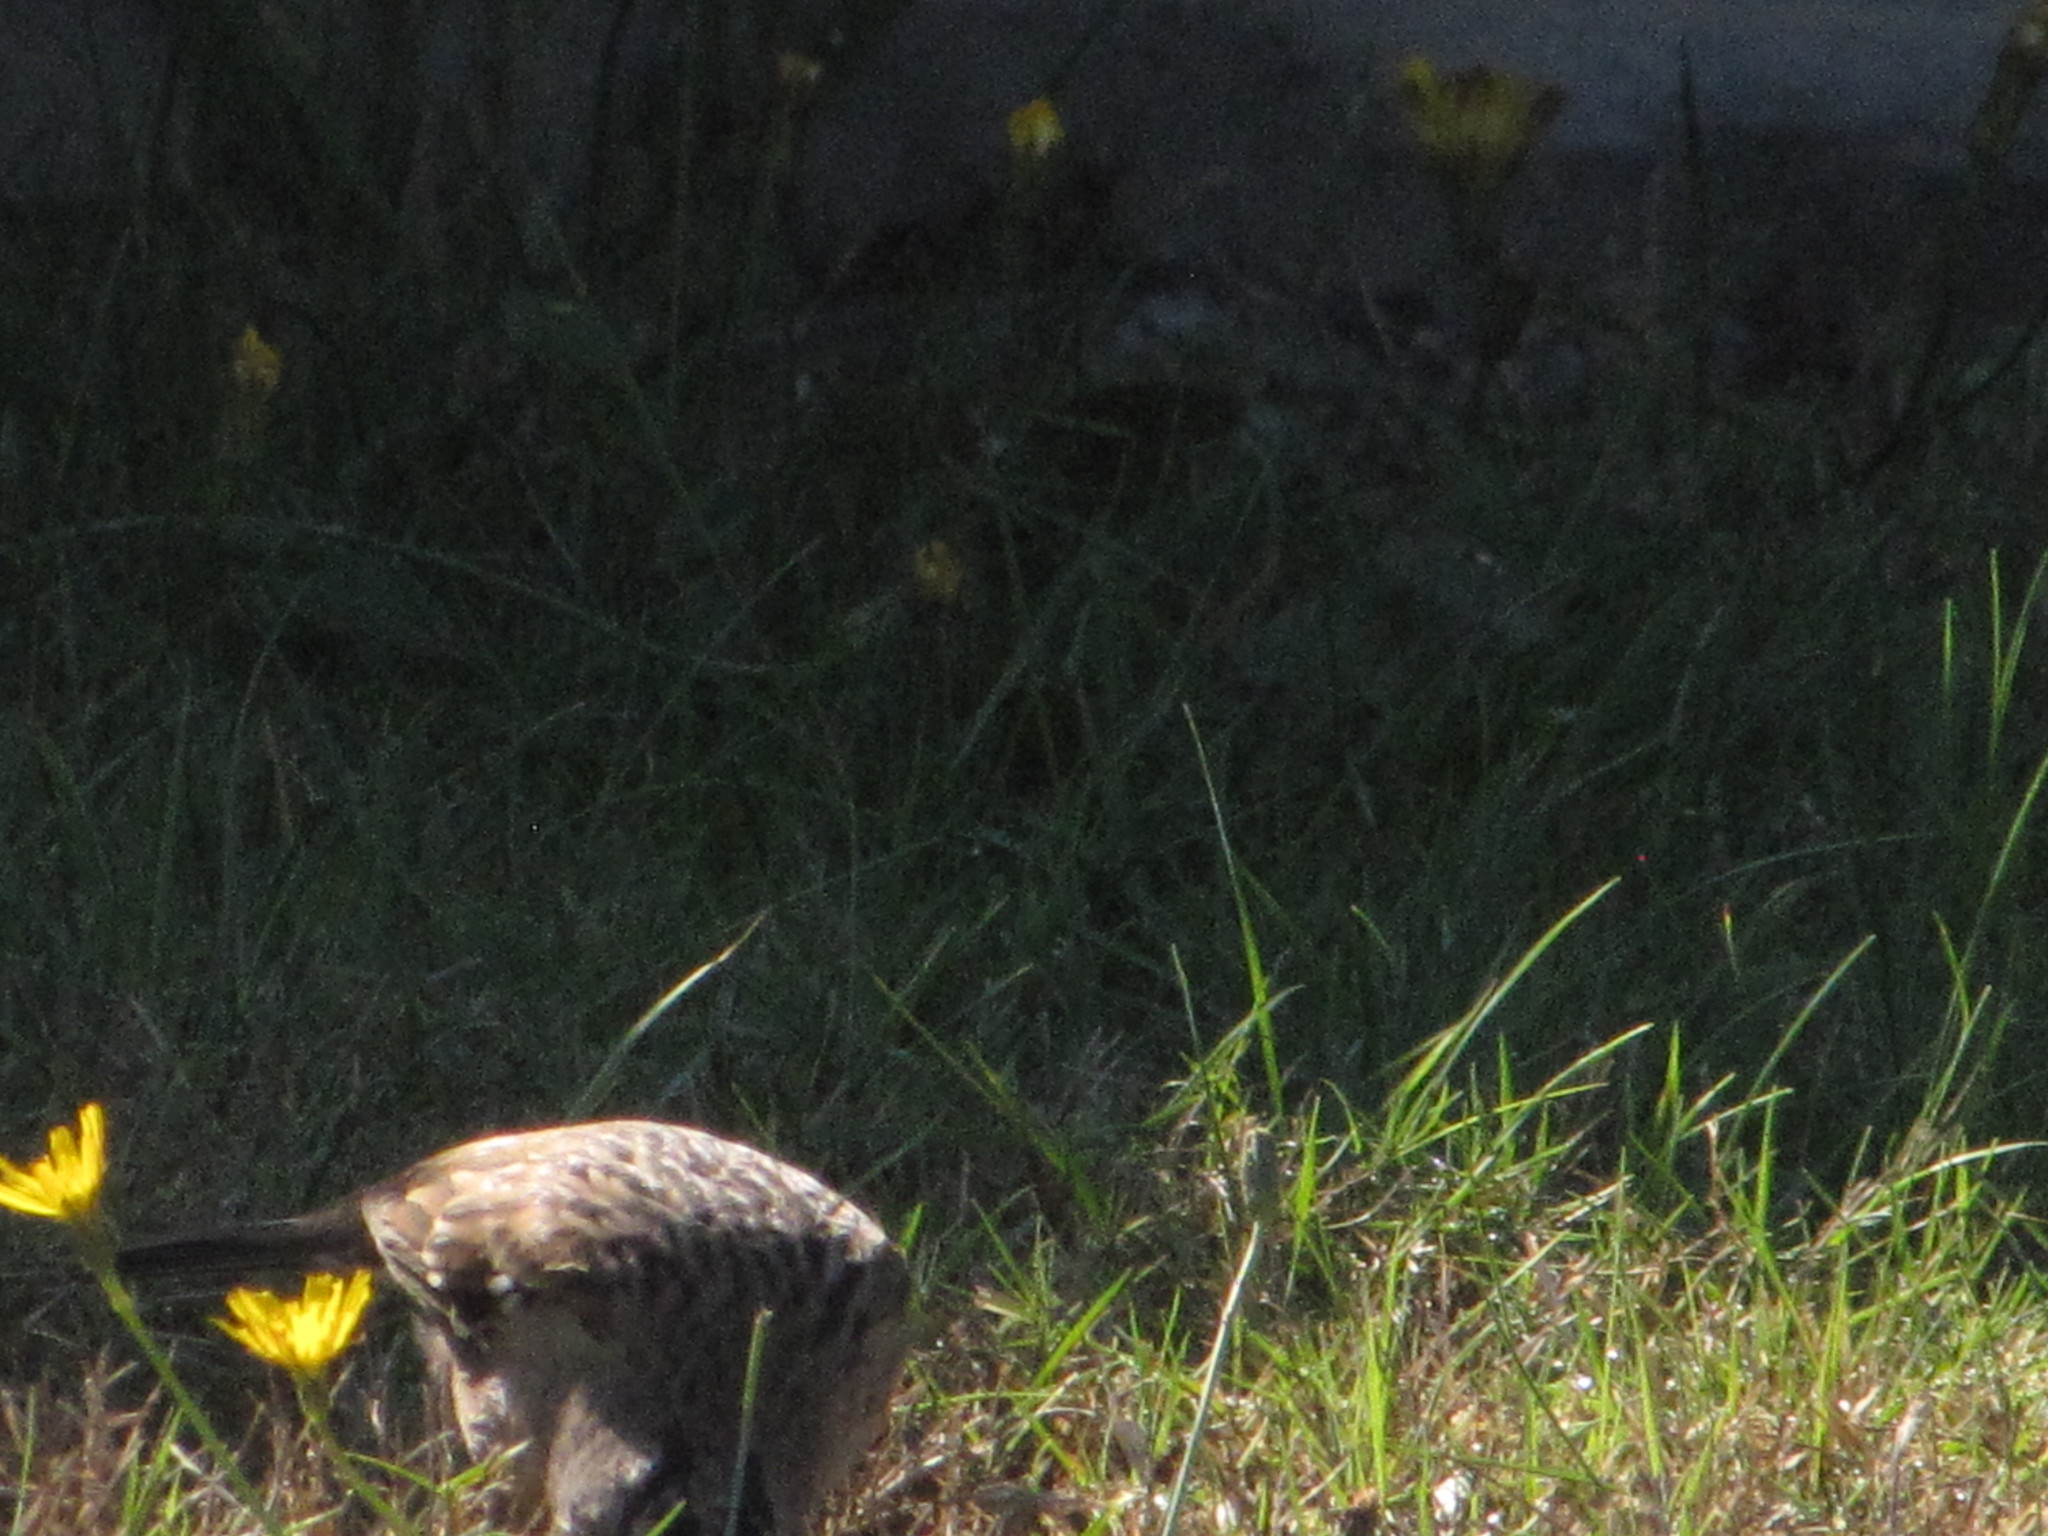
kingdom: Animalia
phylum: Chordata
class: Aves
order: Passeriformes
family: Passerellidae
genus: Zonotrichia
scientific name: Zonotrichia leucophrys
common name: White-crowned sparrow
